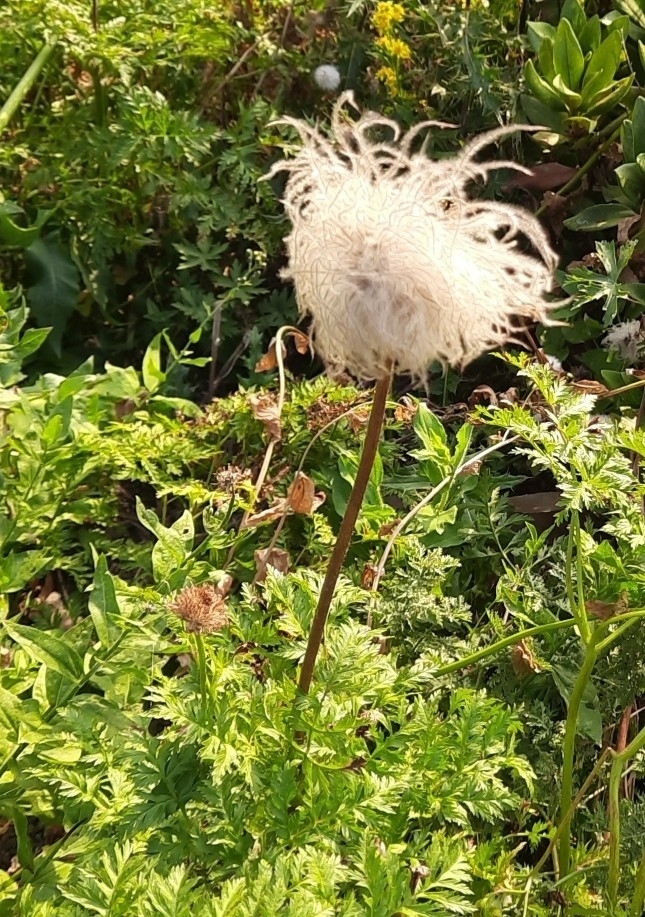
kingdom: Plantae
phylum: Tracheophyta
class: Magnoliopsida
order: Ranunculales
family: Ranunculaceae
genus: Pulsatilla
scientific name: Pulsatilla aurea
